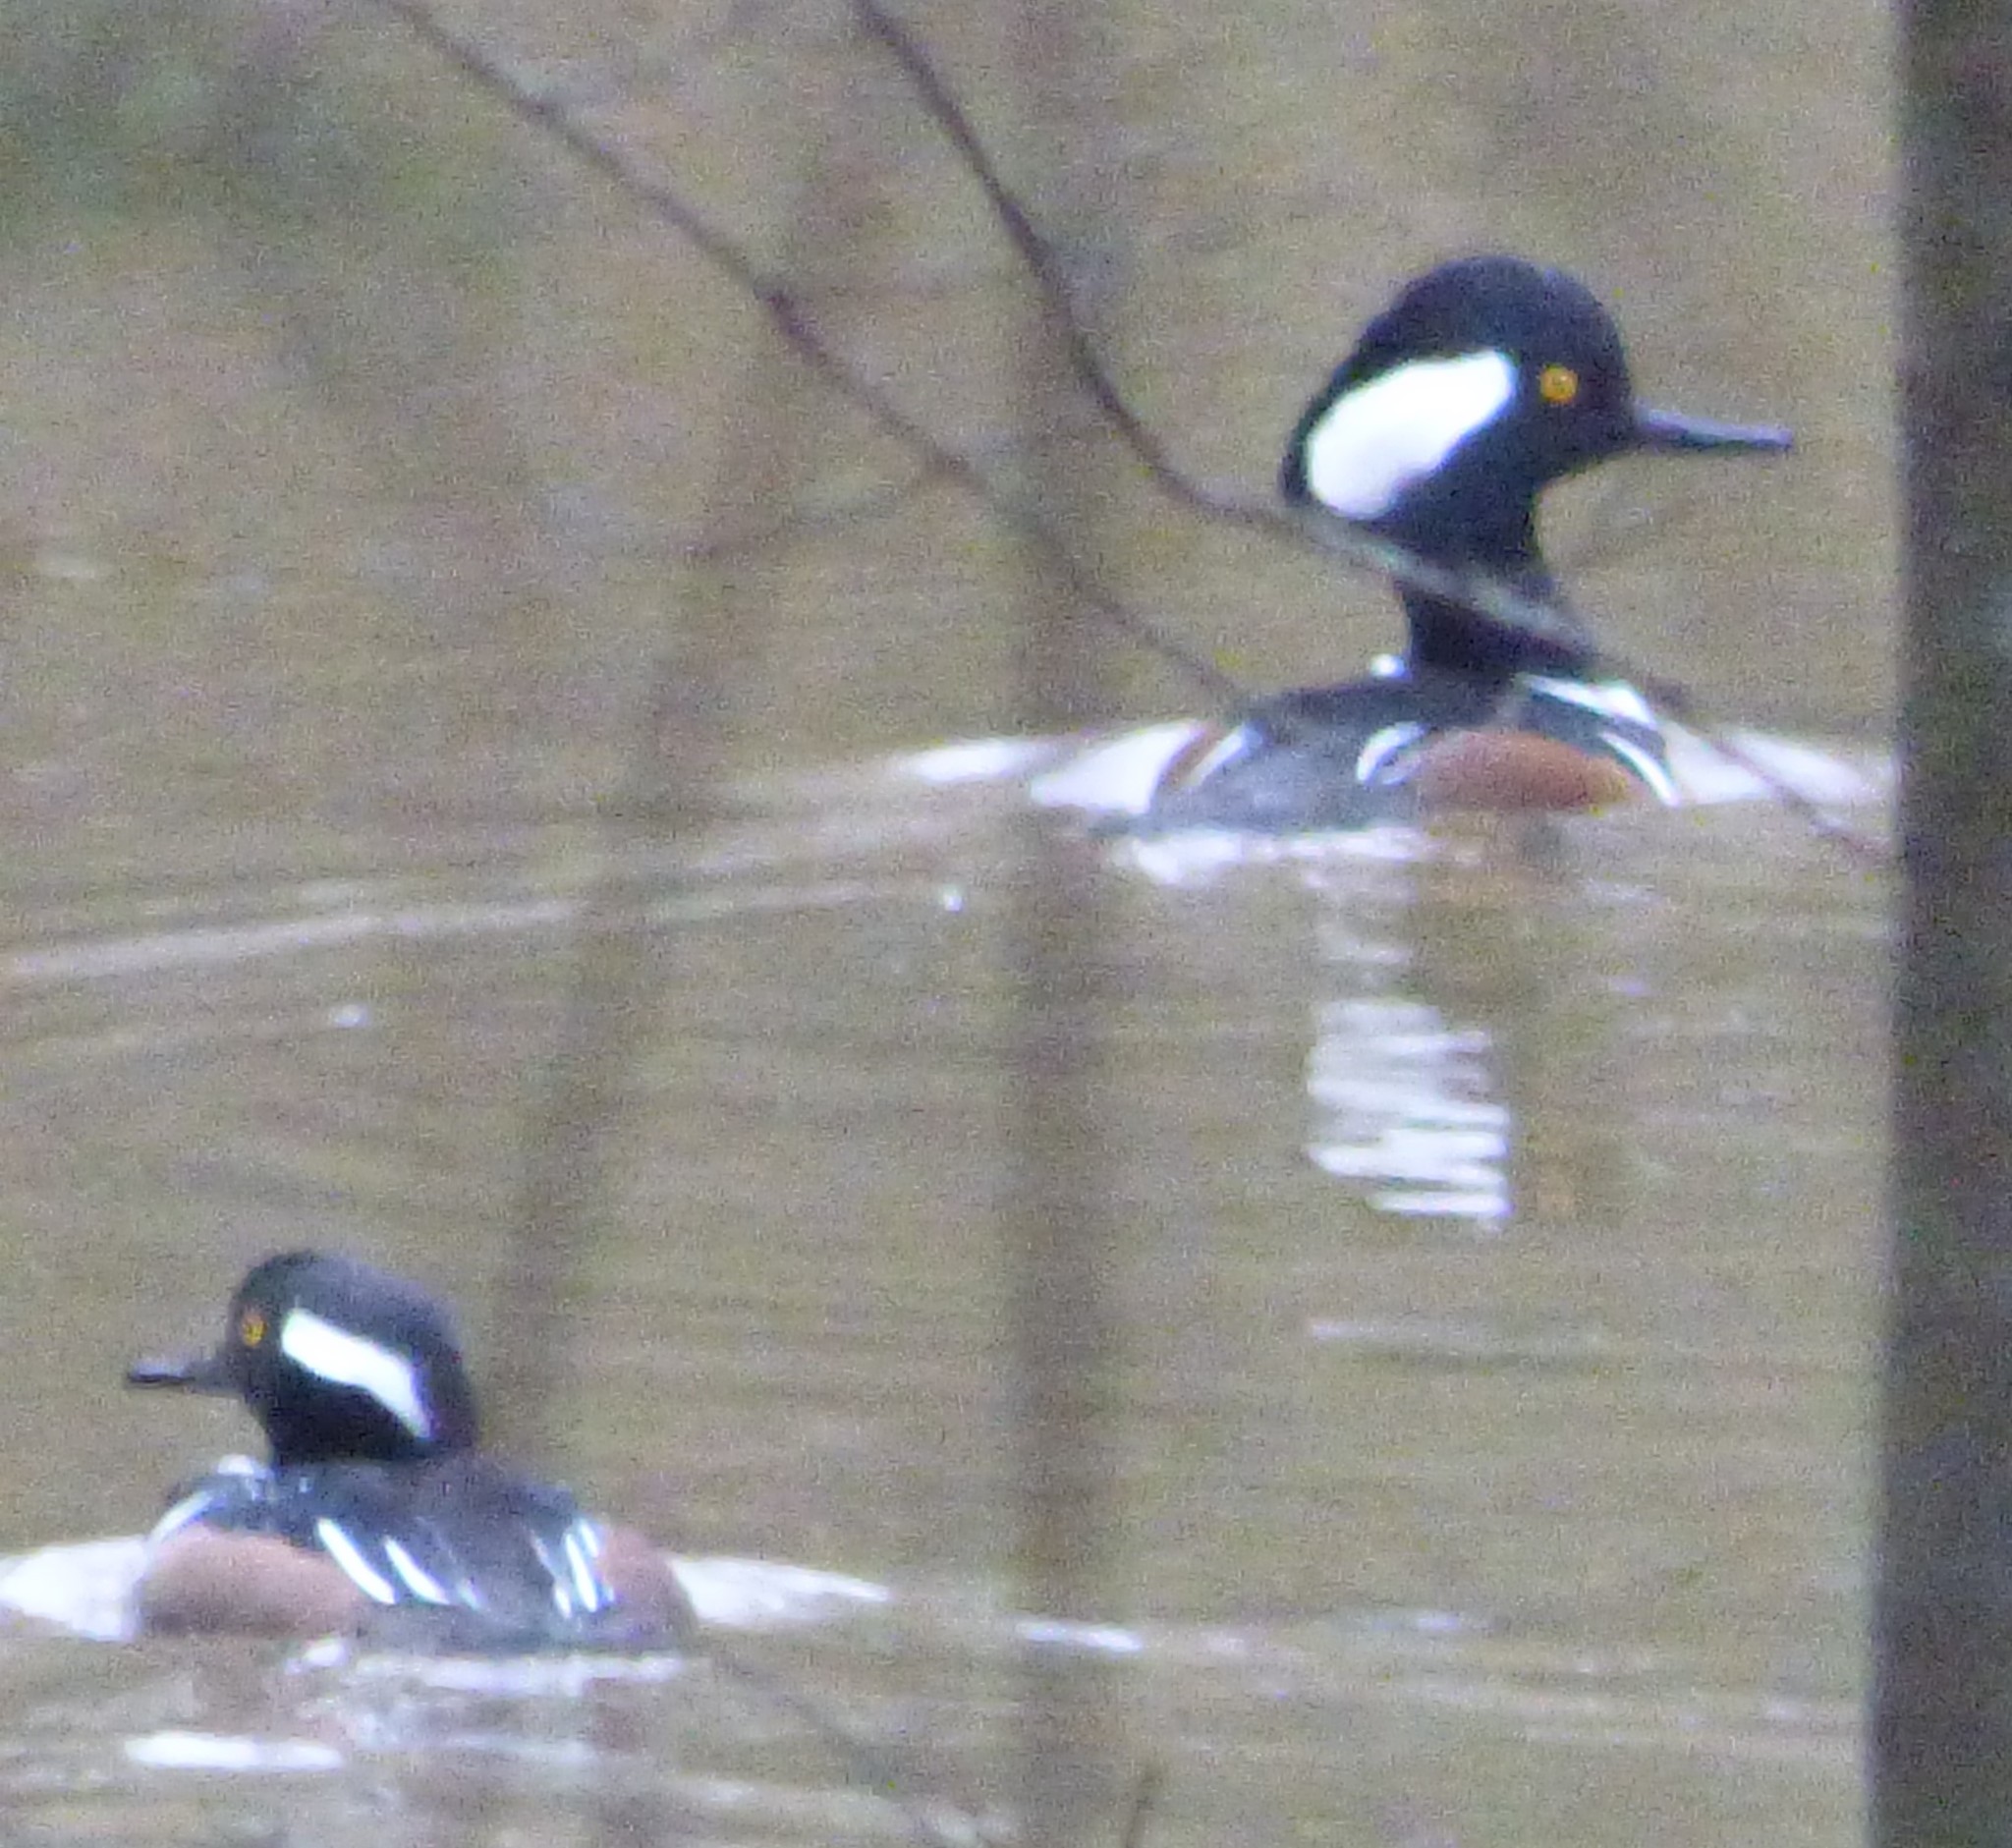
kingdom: Animalia
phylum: Chordata
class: Aves
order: Anseriformes
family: Anatidae
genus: Lophodytes
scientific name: Lophodytes cucullatus
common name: Hooded merganser
